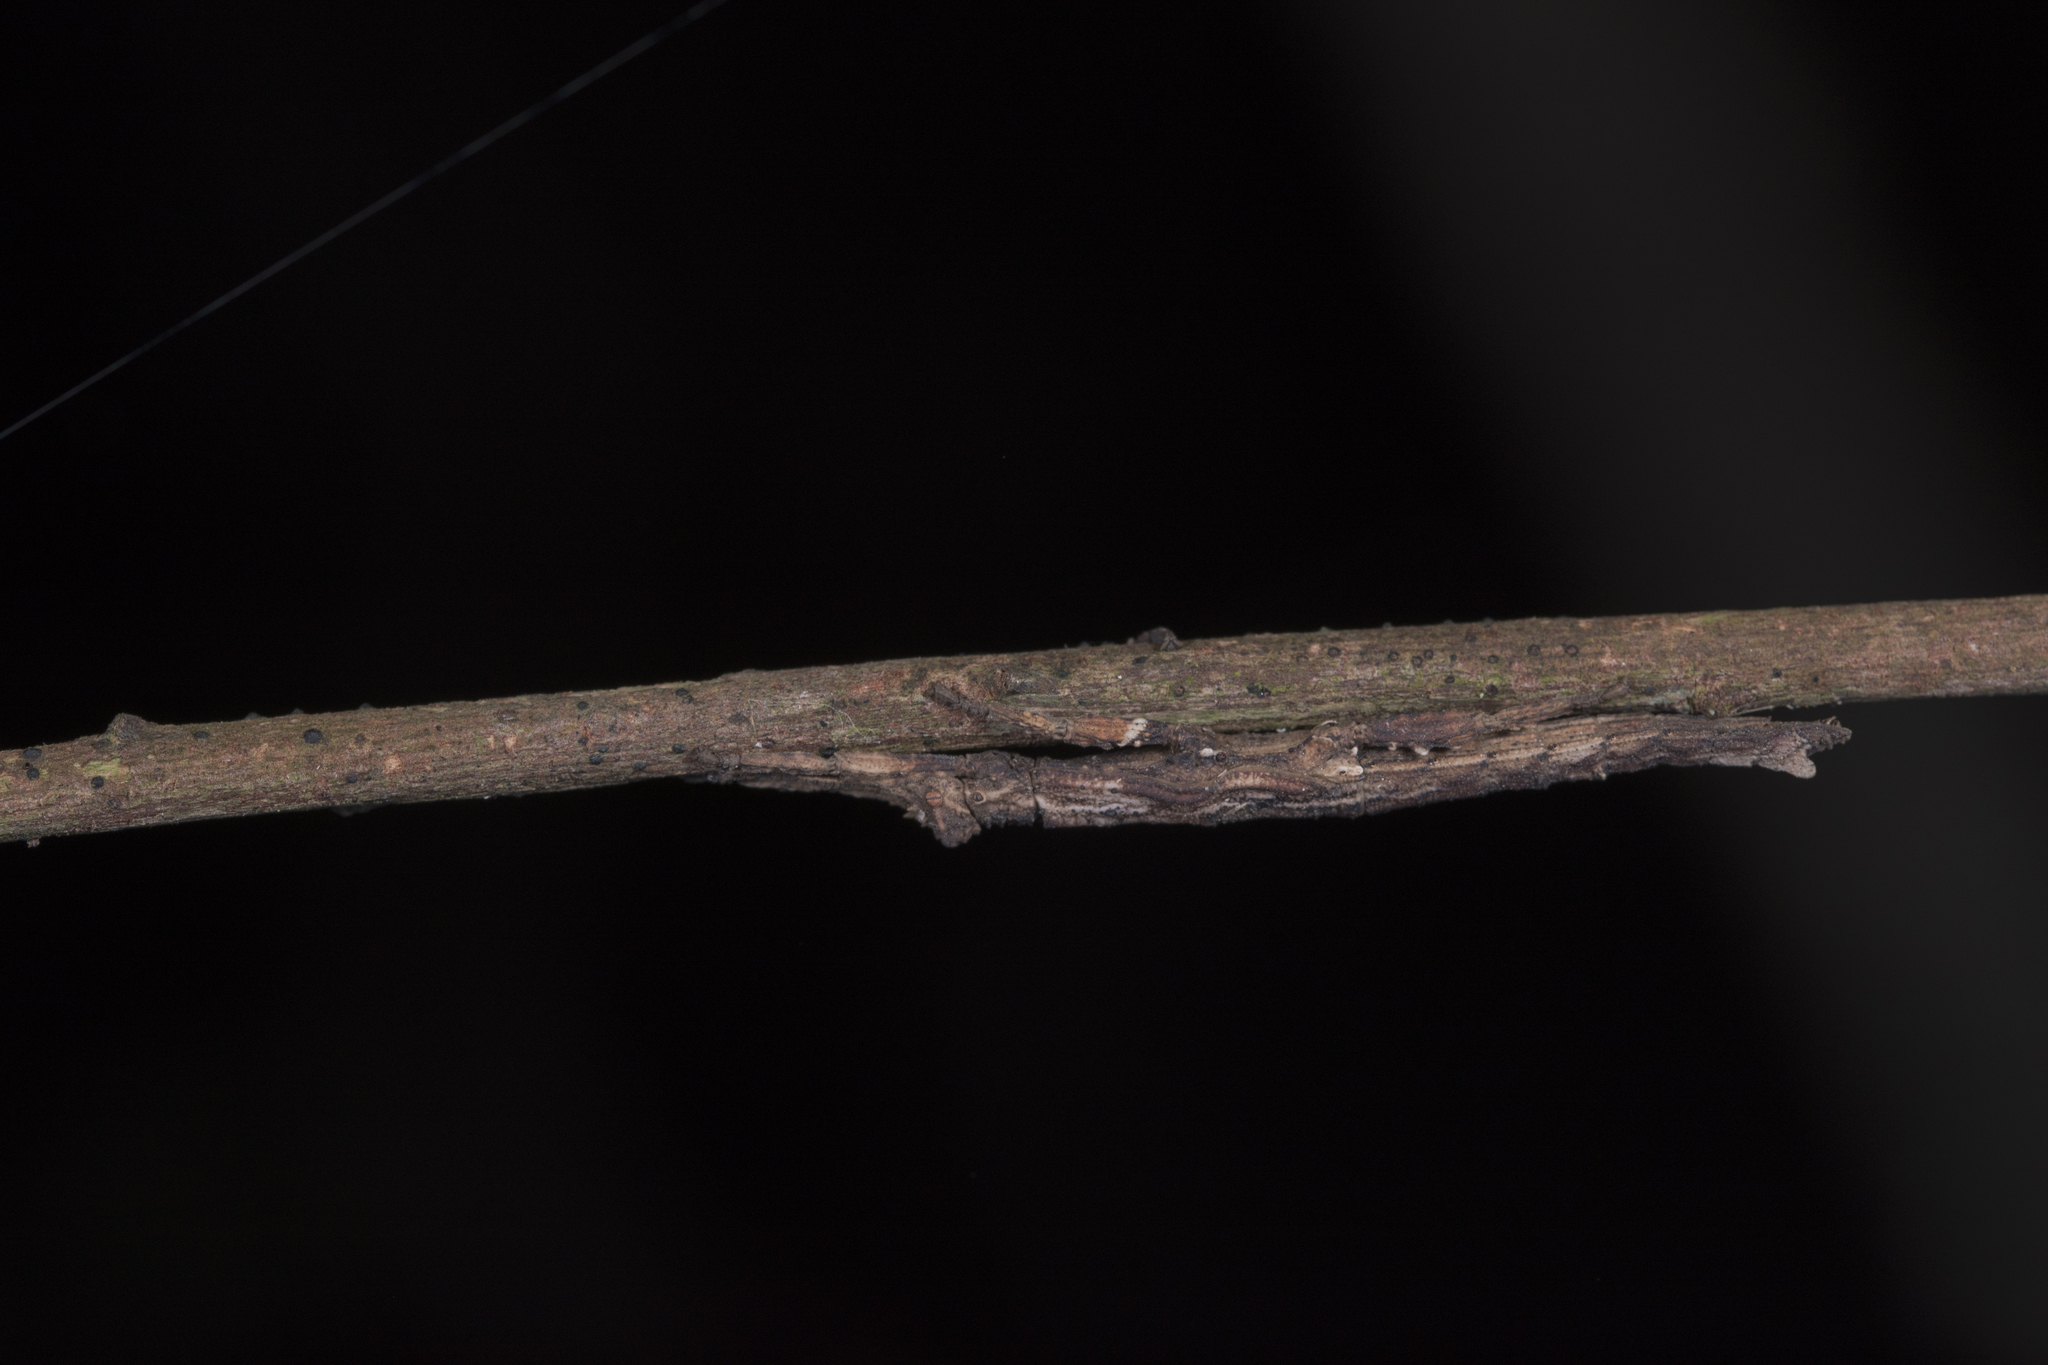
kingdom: Animalia
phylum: Arthropoda
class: Insecta
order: Phasmida
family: Heteropterygidae
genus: Orestes
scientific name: Orestes shirakii
